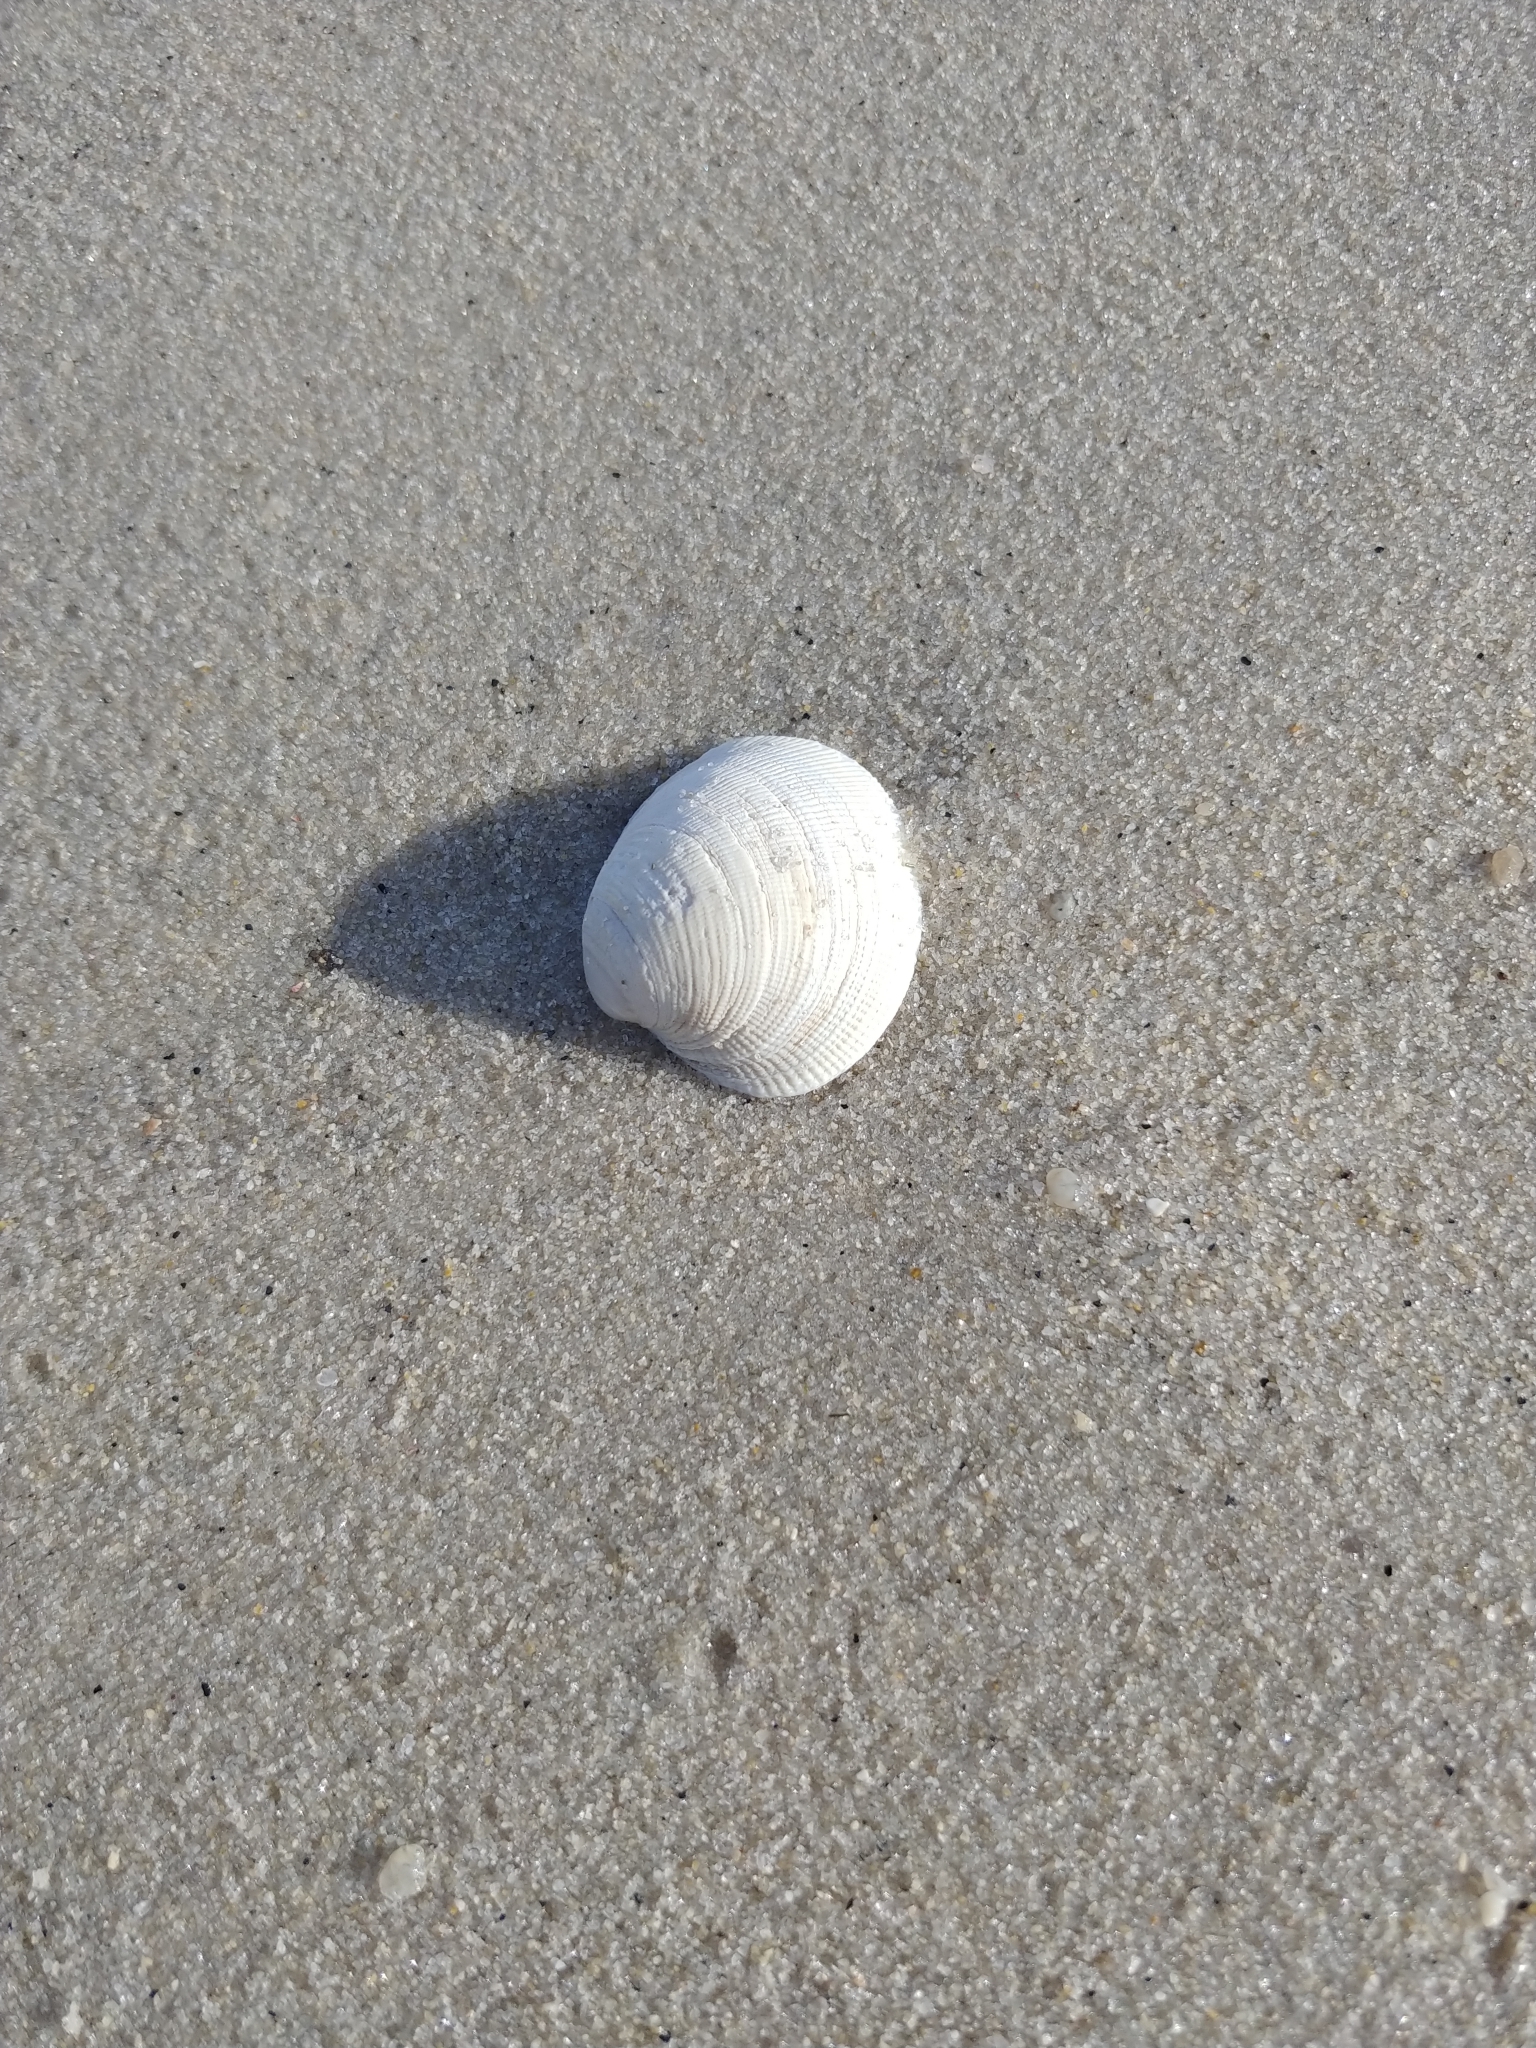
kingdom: Animalia
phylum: Mollusca
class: Bivalvia
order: Venerida
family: Veneridae
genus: Leukoma
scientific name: Leukoma staminea
